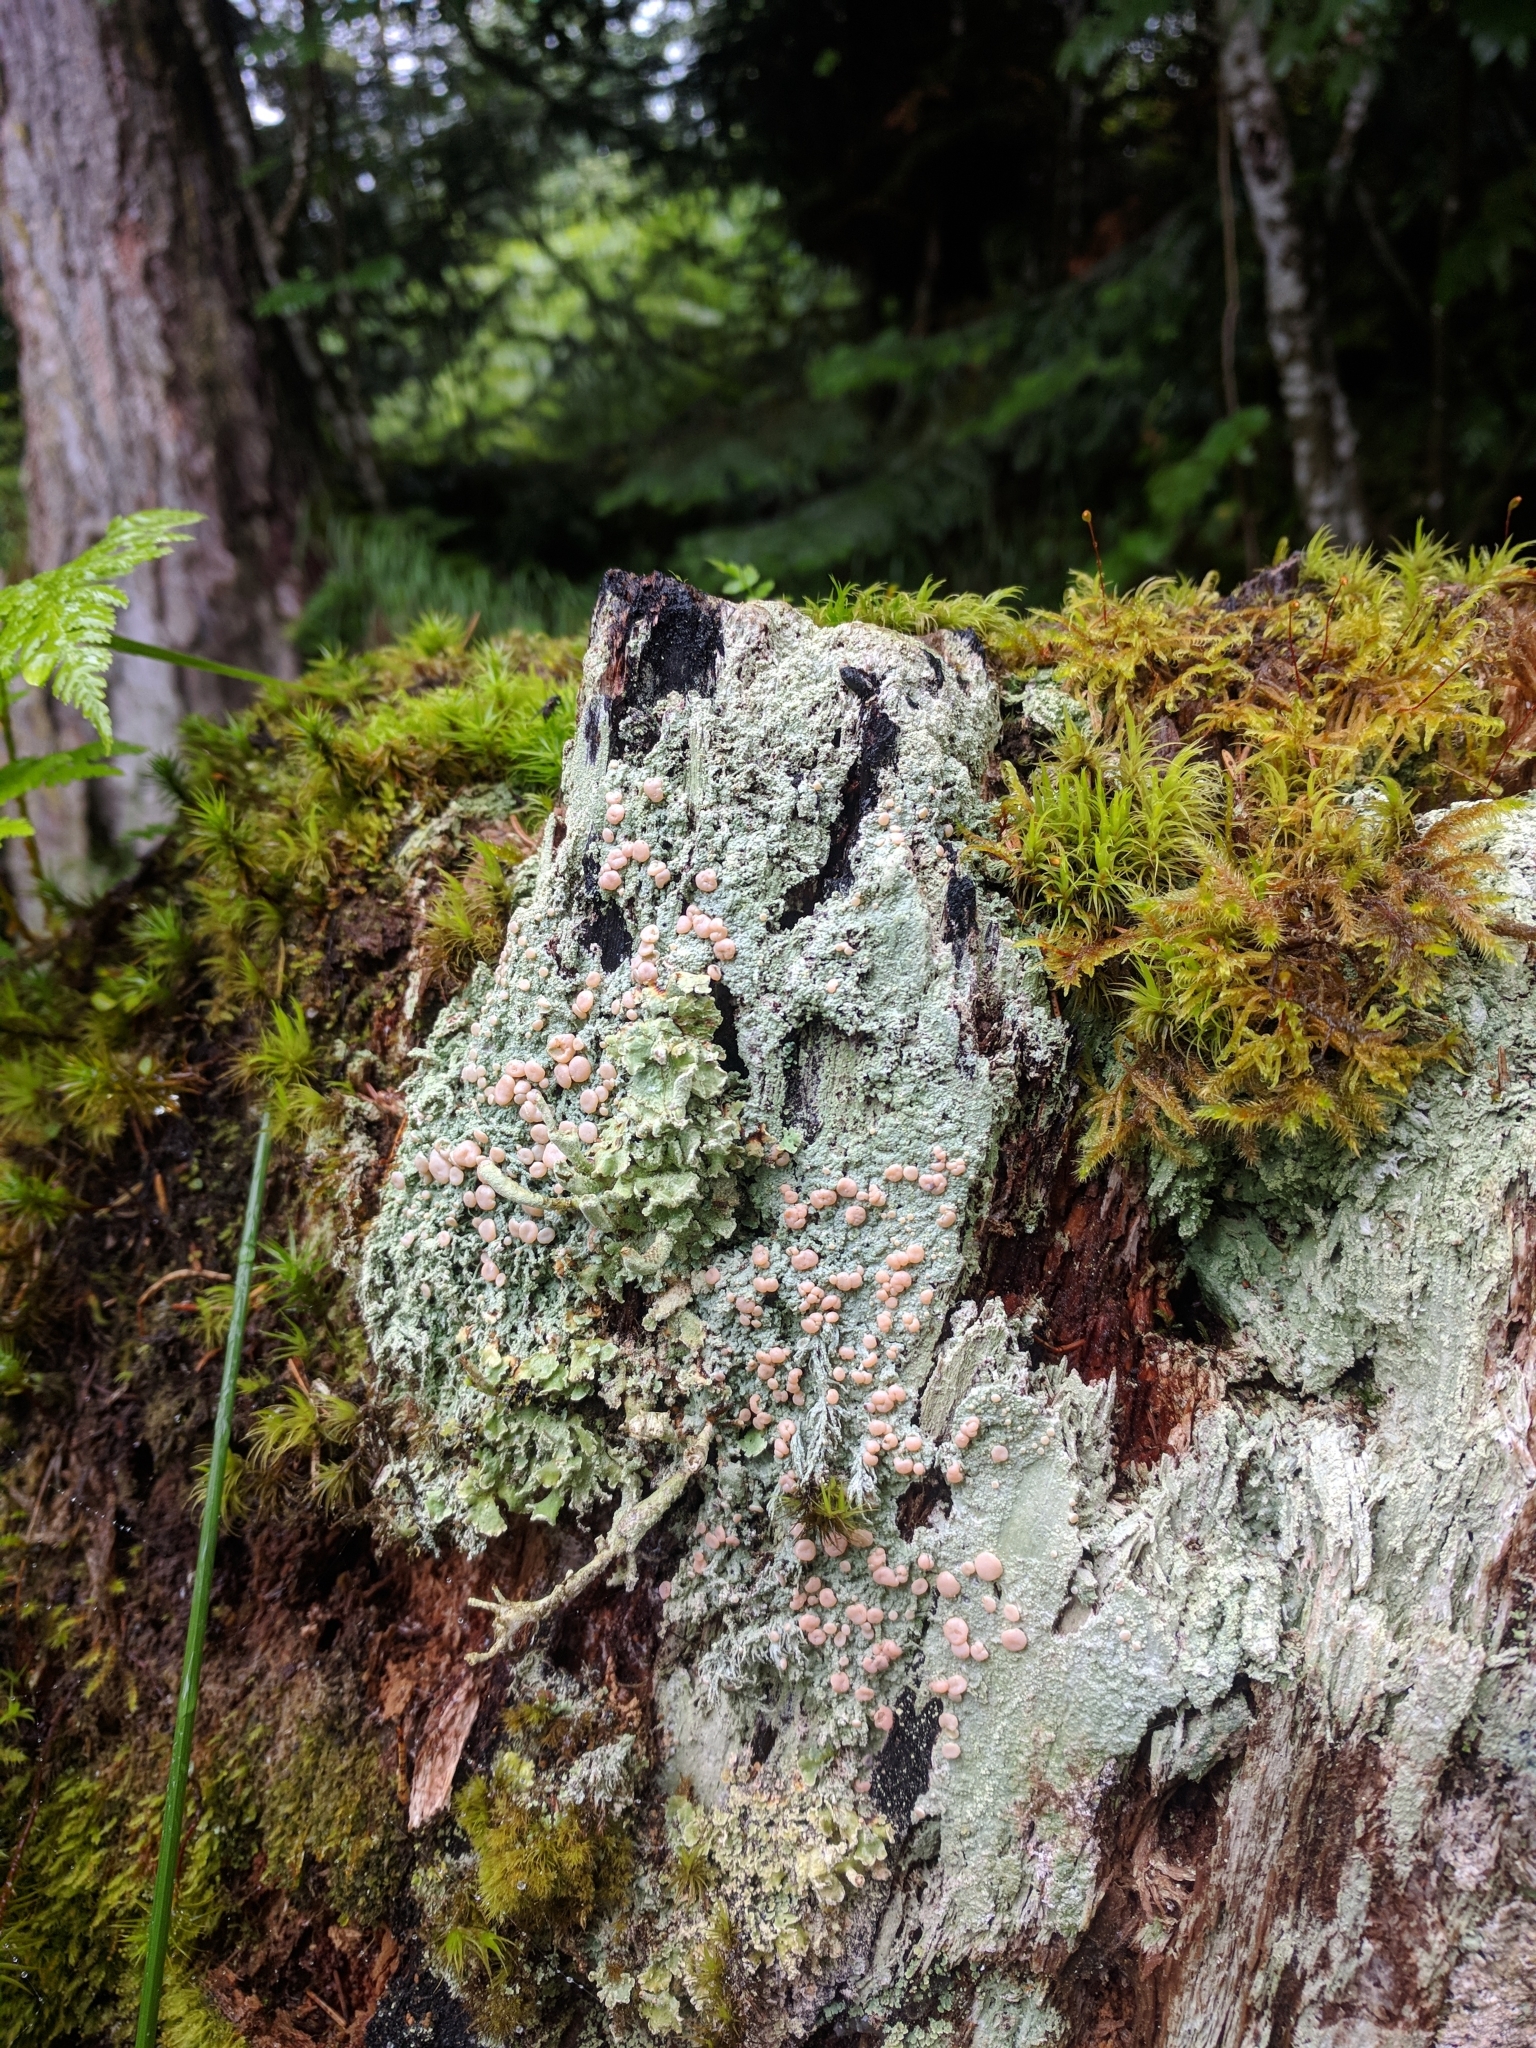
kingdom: Fungi
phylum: Ascomycota
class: Lecanoromycetes
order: Pertusariales
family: Icmadophilaceae
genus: Icmadophila
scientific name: Icmadophila ericetorum
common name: Candy lichen
